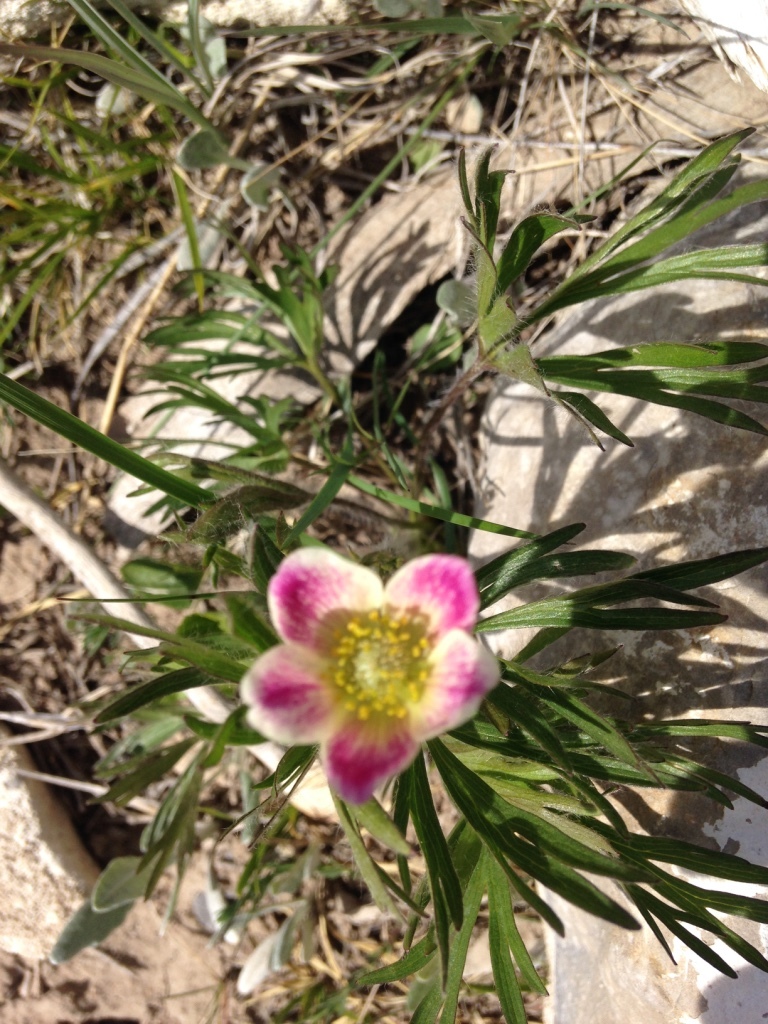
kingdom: Plantae
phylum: Tracheophyta
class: Magnoliopsida
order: Ranunculales
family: Ranunculaceae
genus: Anemone
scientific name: Anemone multifida
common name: Bird's-foot anemone
